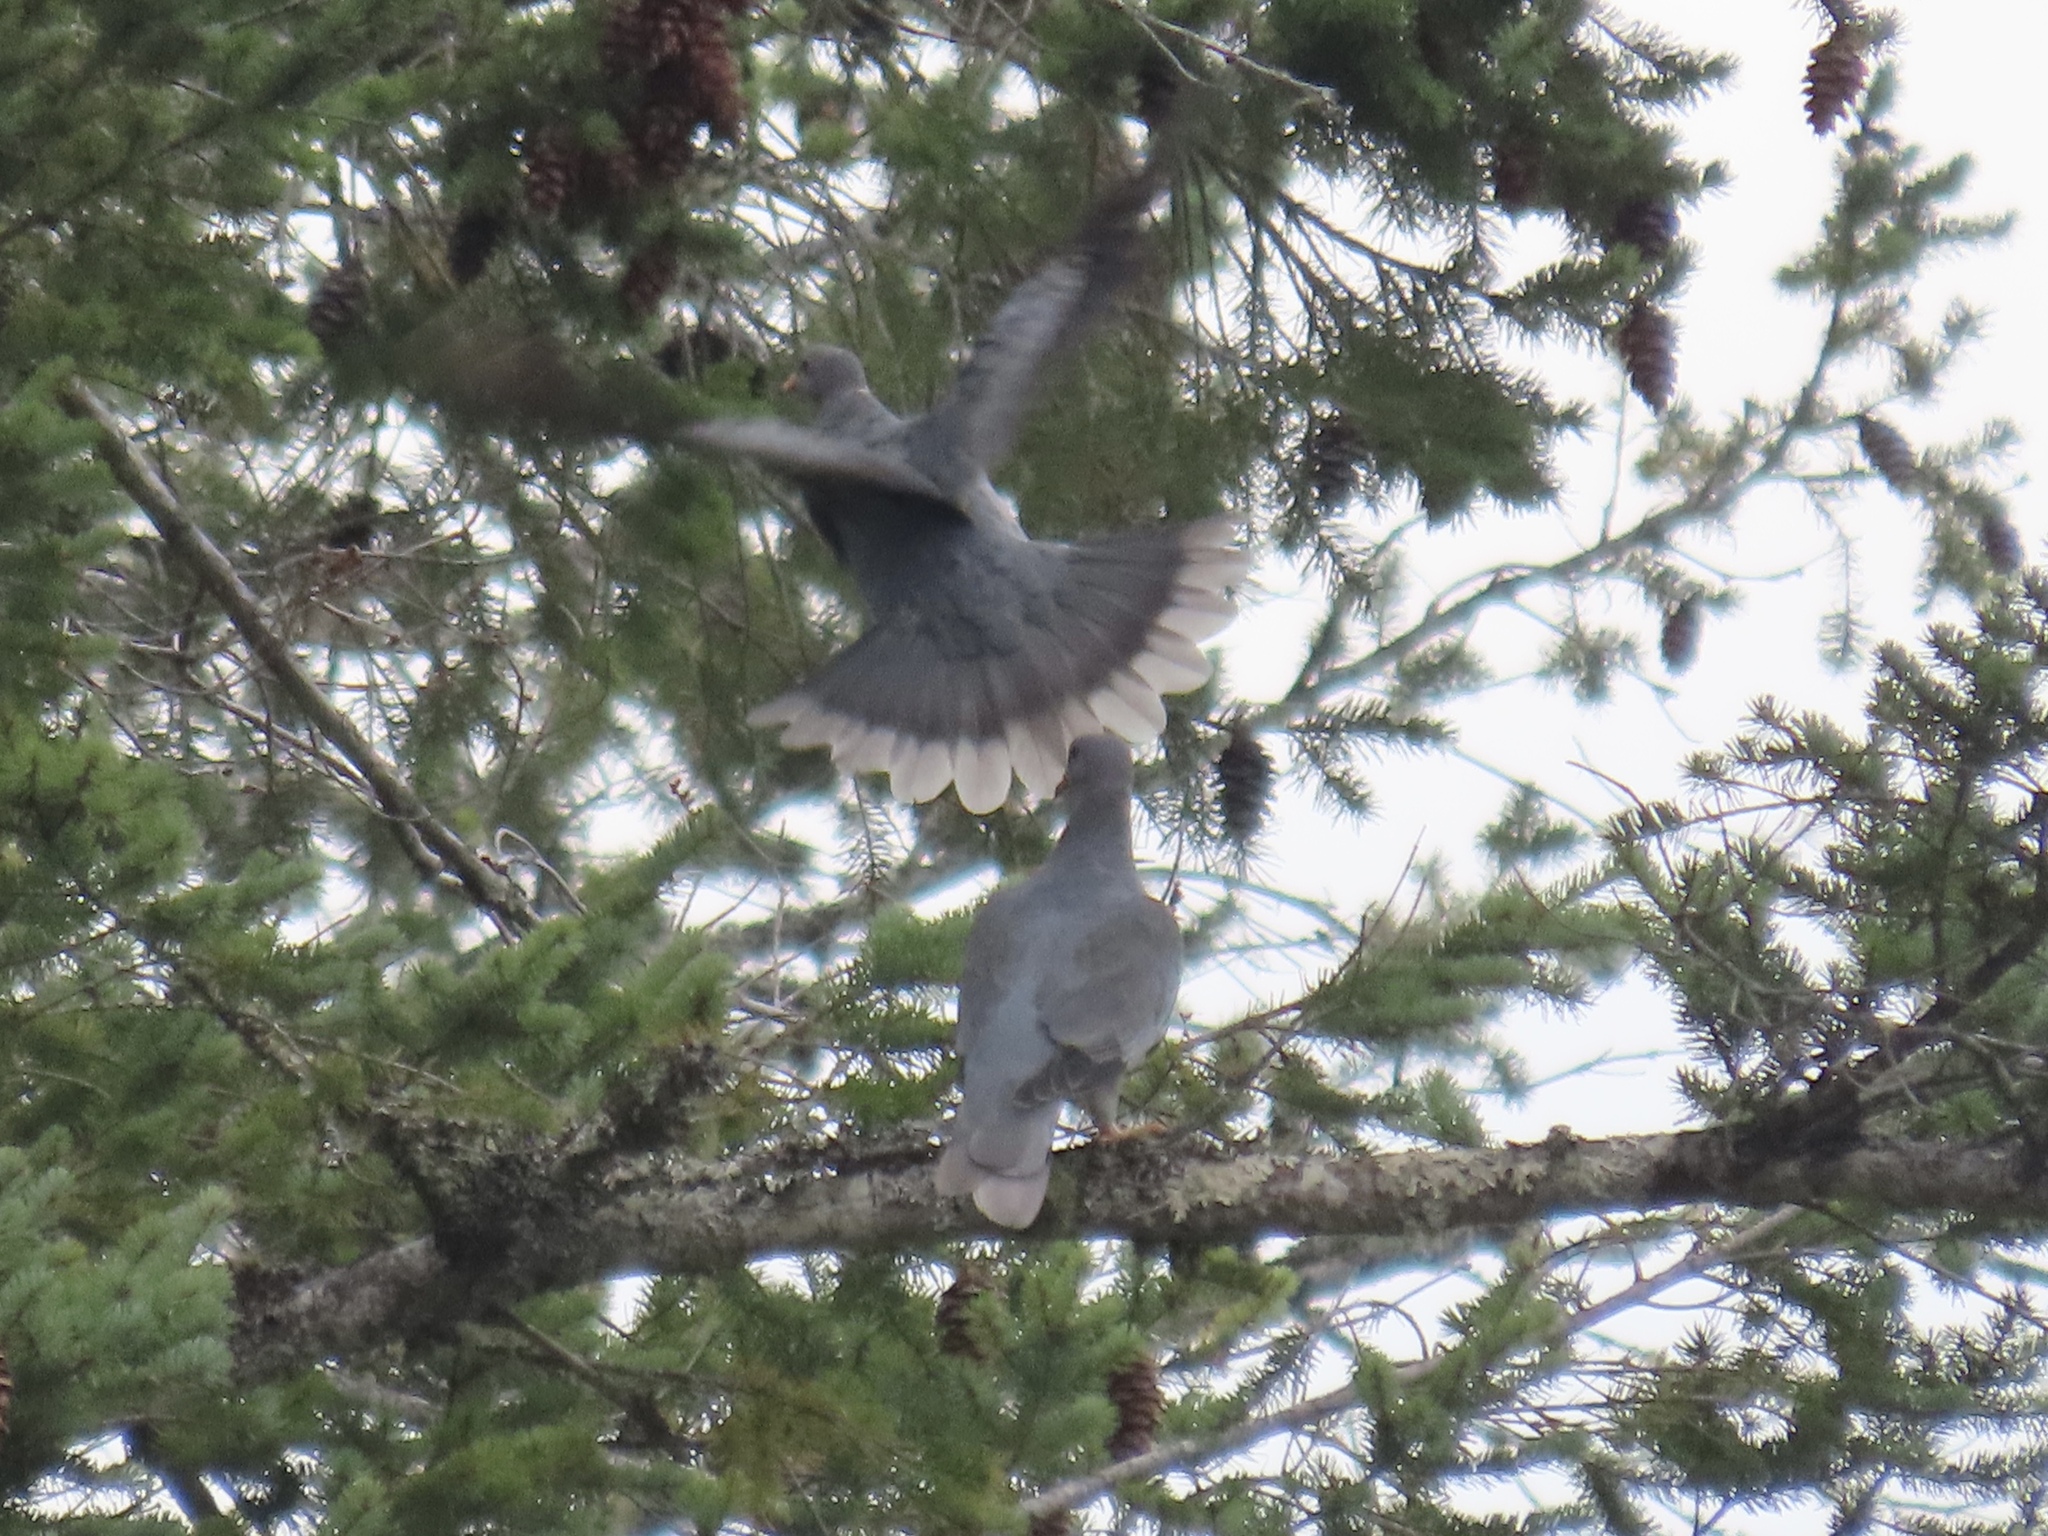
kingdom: Animalia
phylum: Chordata
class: Aves
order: Columbiformes
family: Columbidae
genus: Patagioenas
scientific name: Patagioenas fasciata
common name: Band-tailed pigeon
